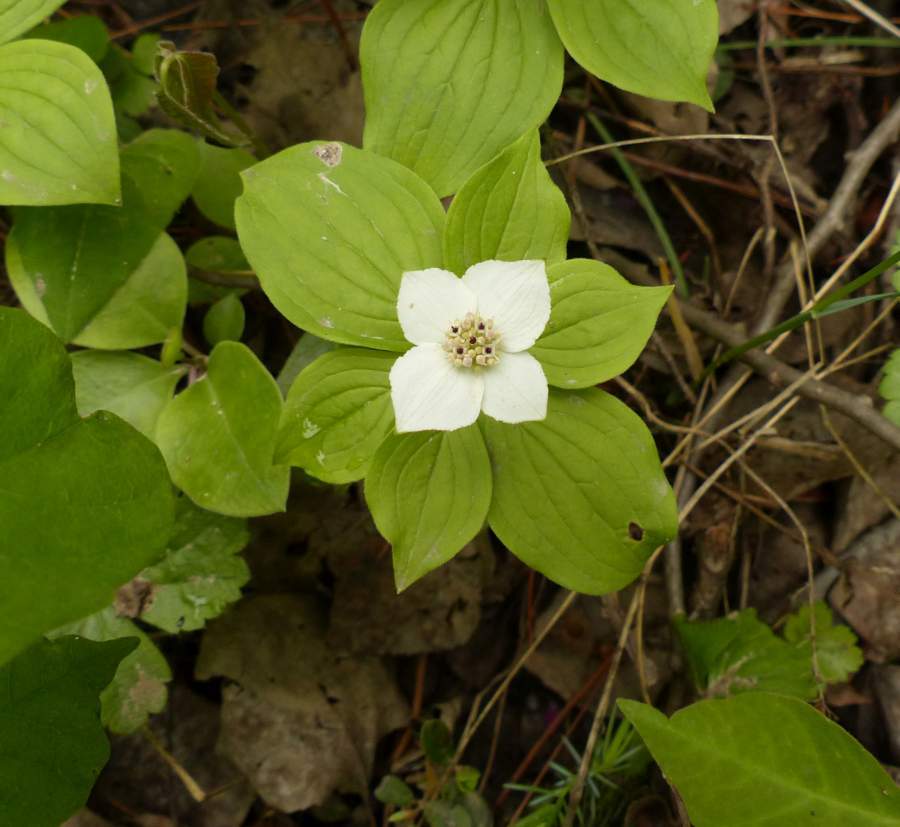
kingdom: Plantae
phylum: Tracheophyta
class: Magnoliopsida
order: Cornales
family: Cornaceae
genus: Cornus
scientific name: Cornus canadensis
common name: Creeping dogwood
